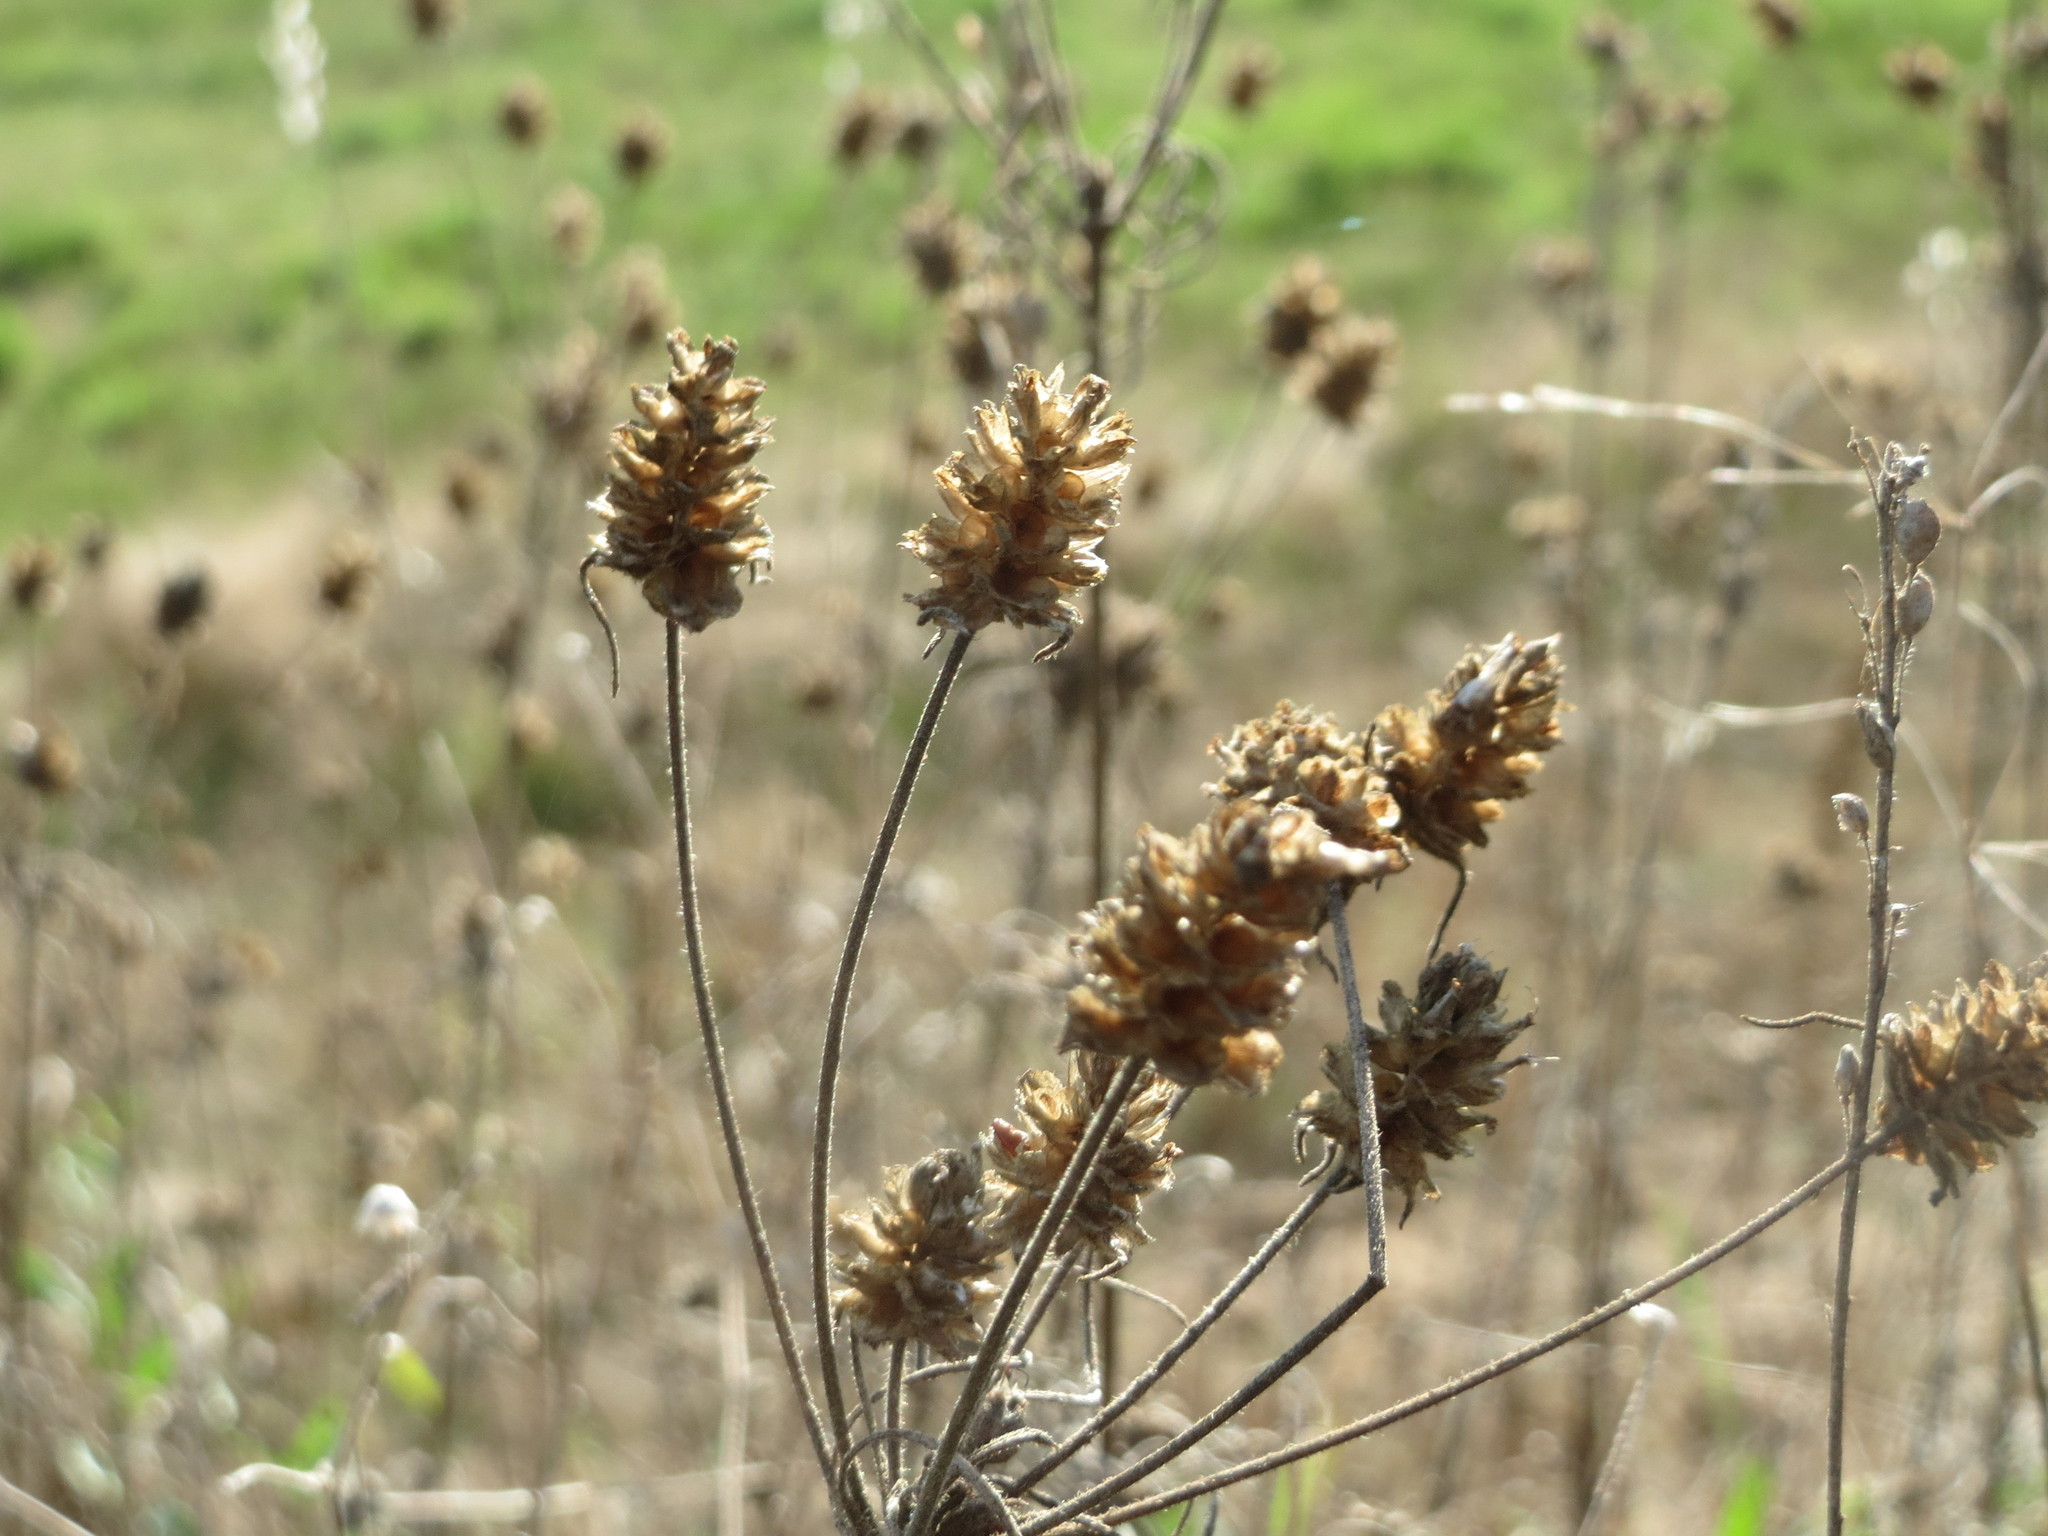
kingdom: Plantae
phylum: Tracheophyta
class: Magnoliopsida
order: Lamiales
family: Plantaginaceae
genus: Plantago
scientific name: Plantago arenaria
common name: Branched plantain
